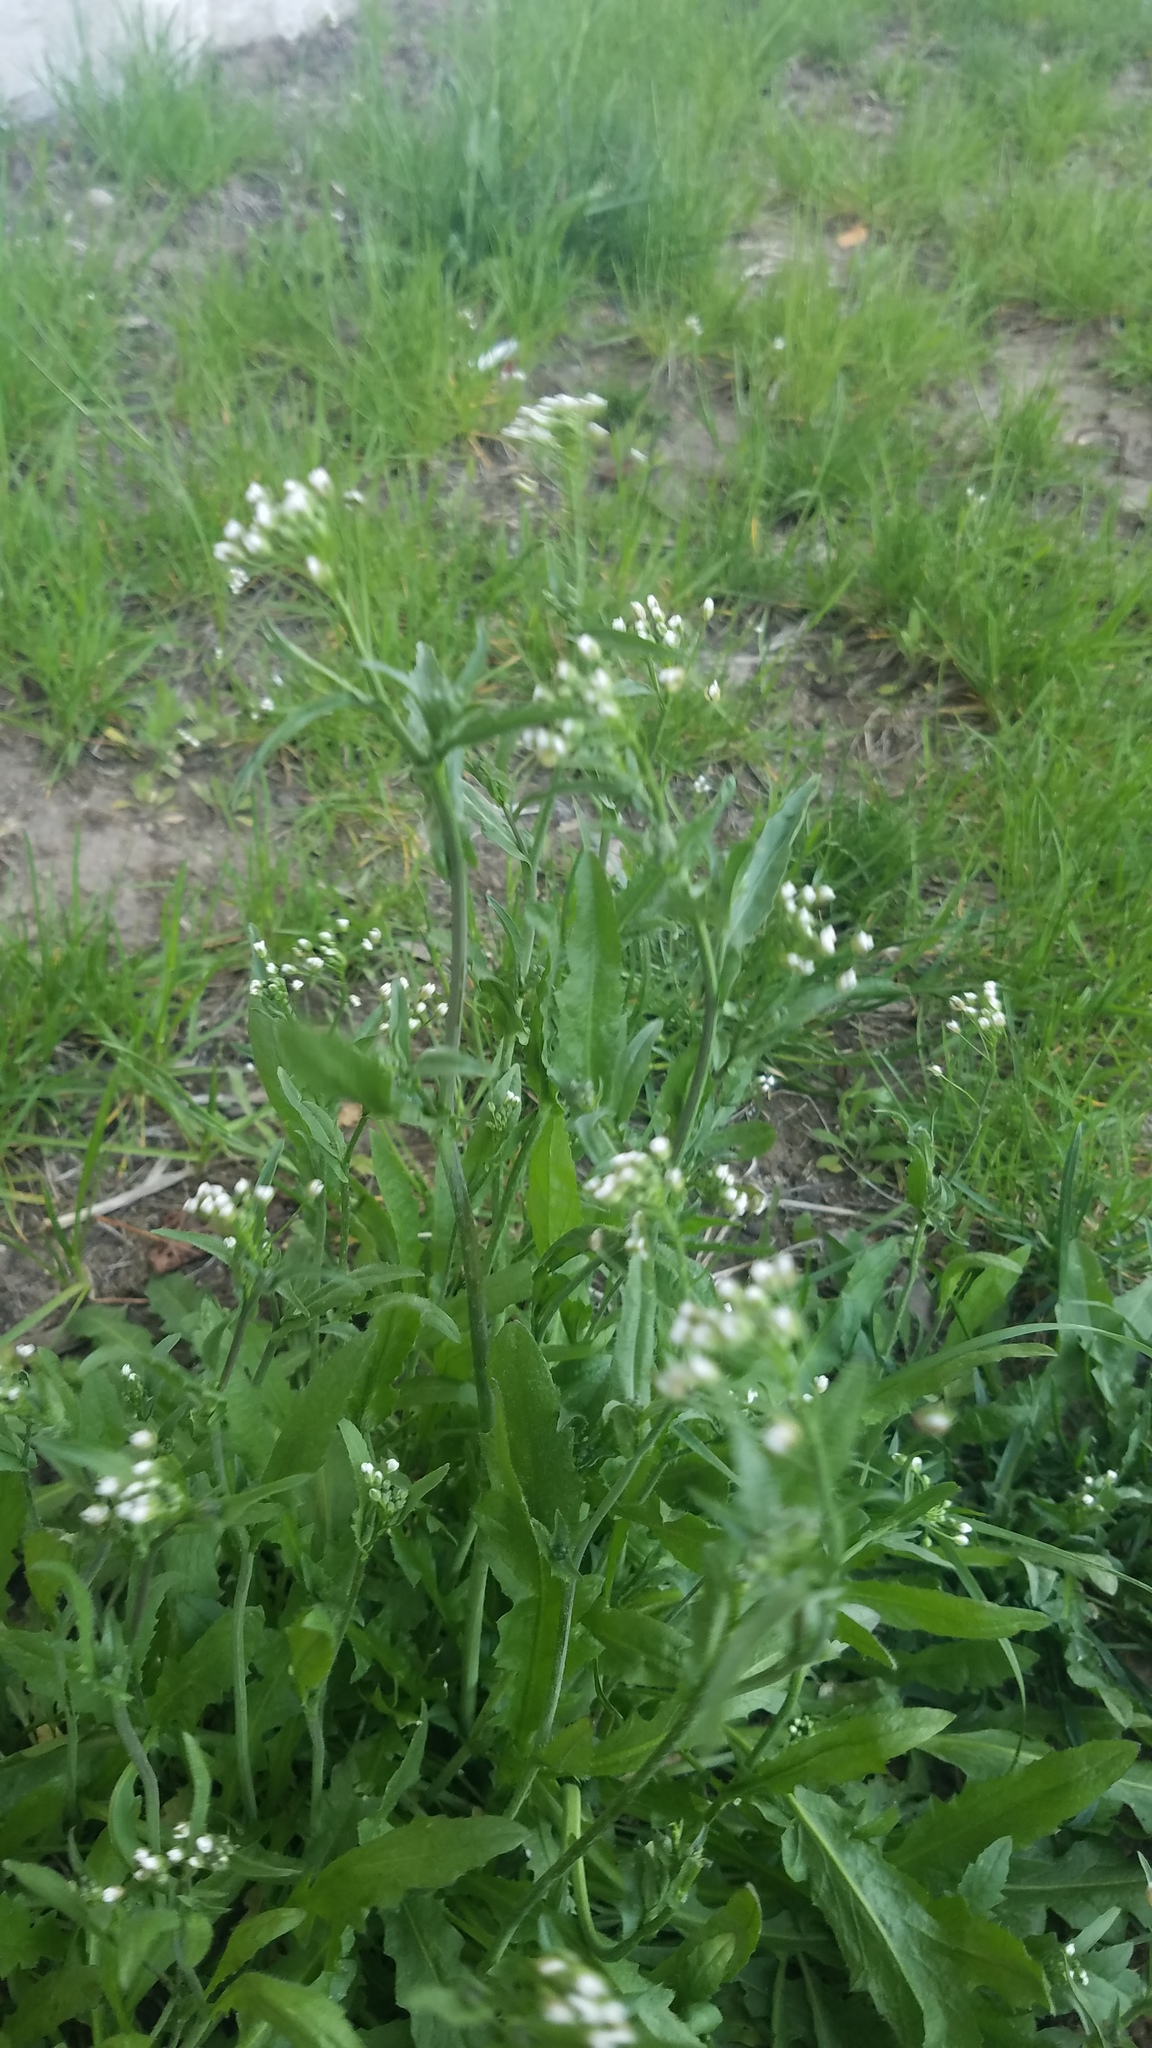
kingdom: Plantae
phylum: Tracheophyta
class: Magnoliopsida
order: Brassicales
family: Brassicaceae
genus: Capsella
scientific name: Capsella bursa-pastoris
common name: Shepherd's purse
